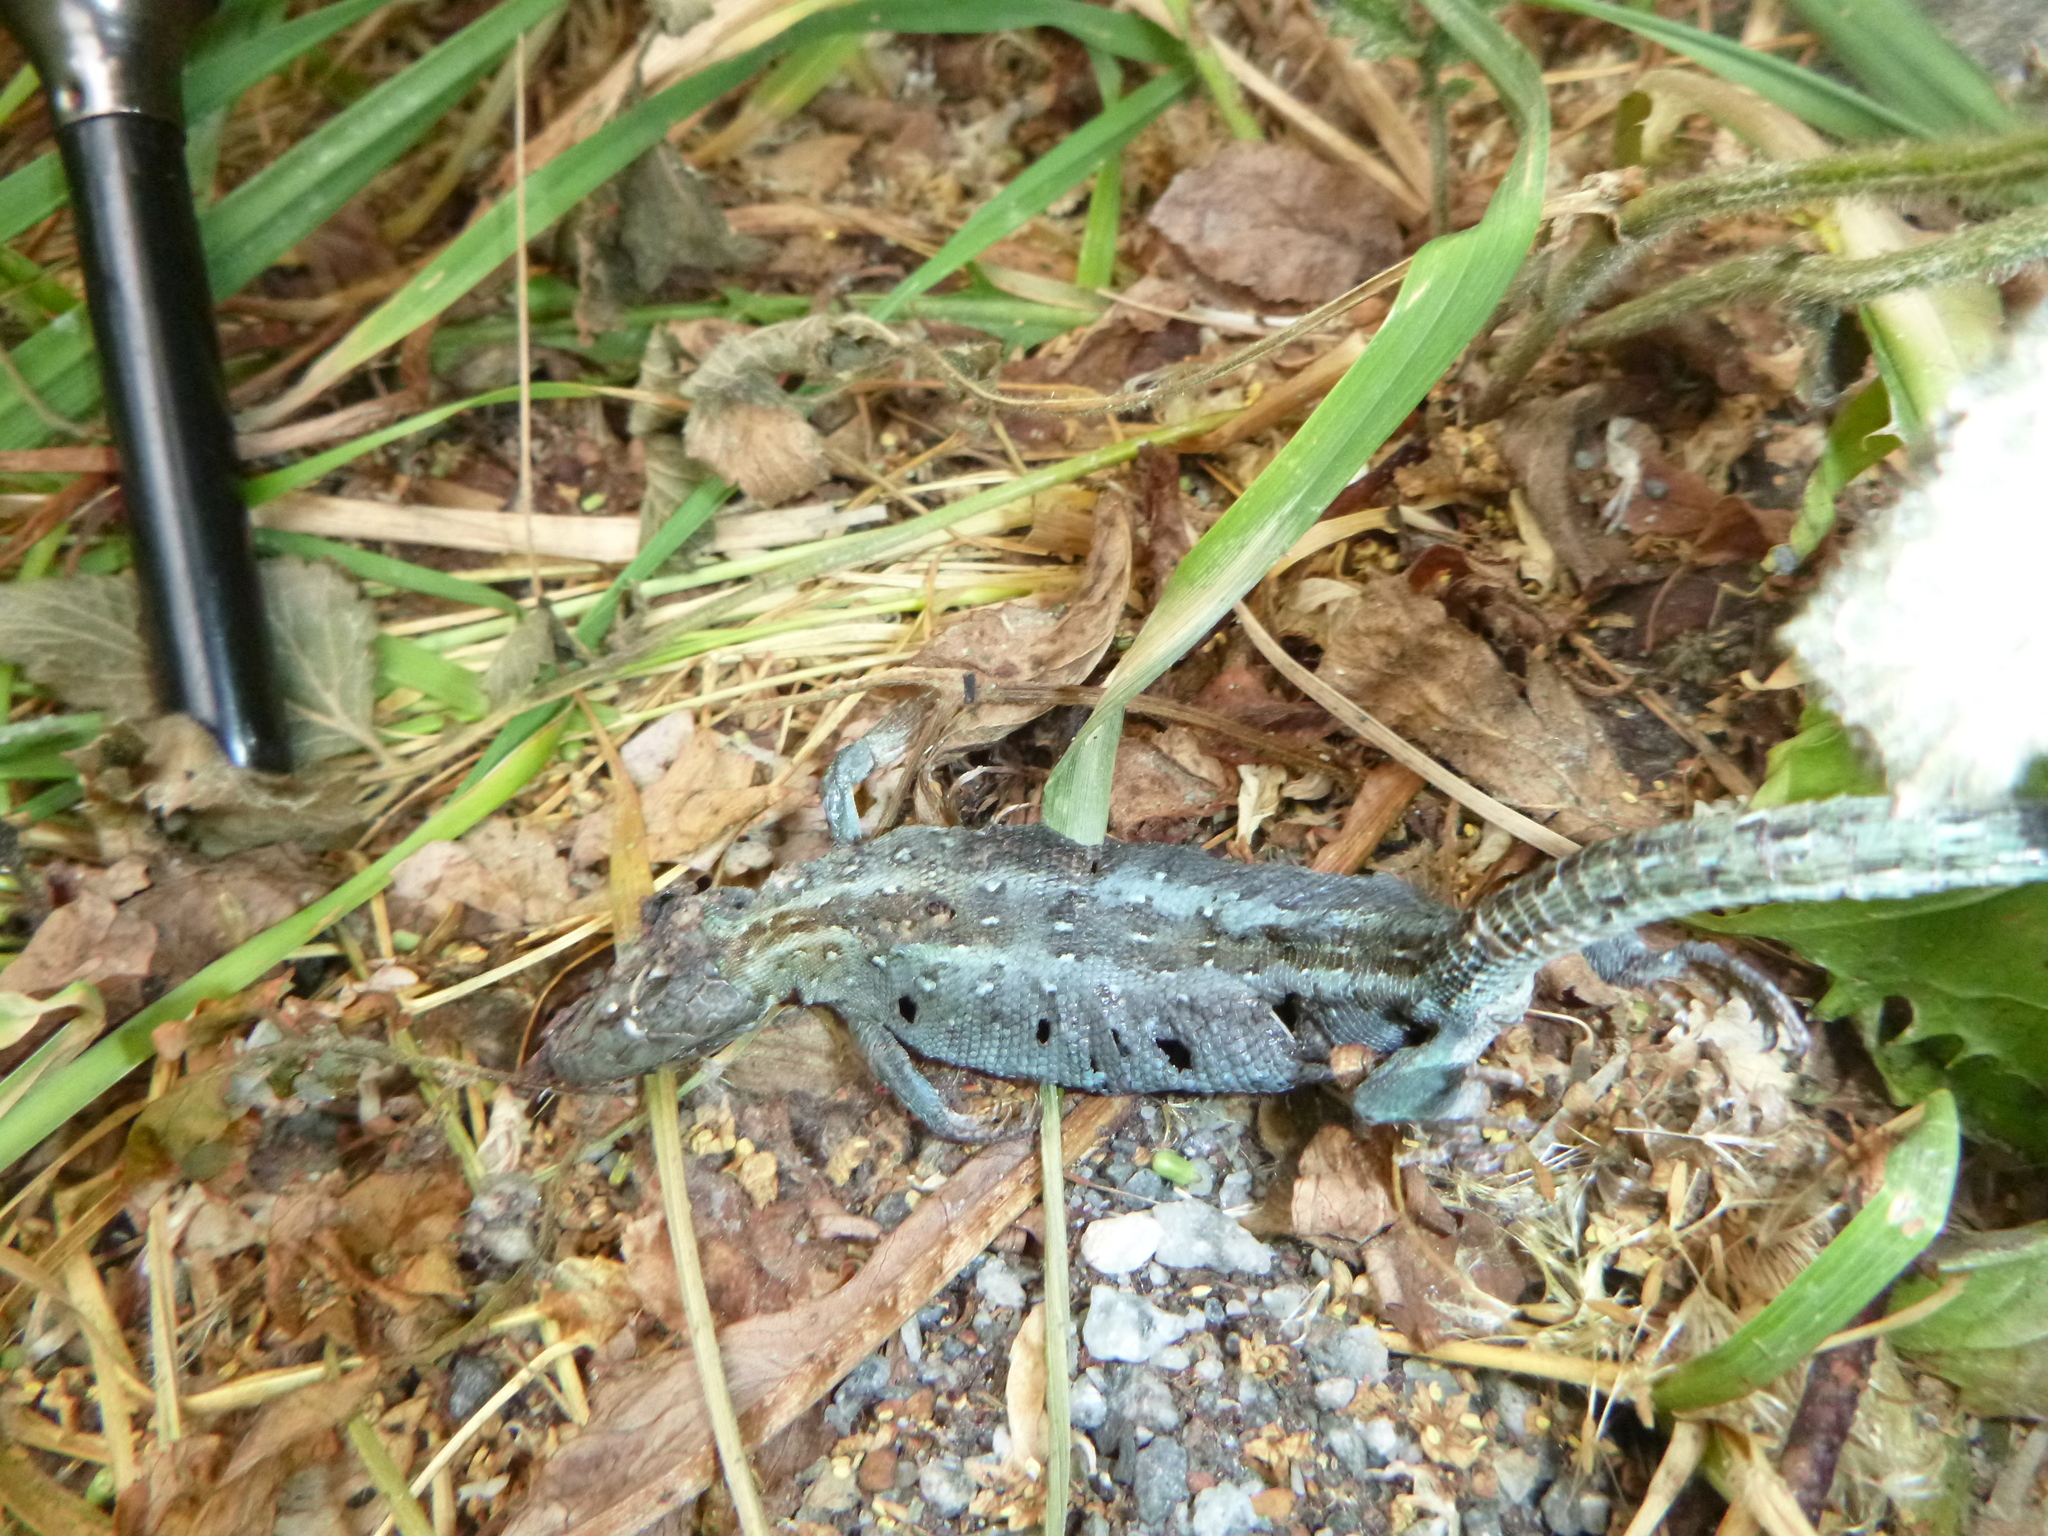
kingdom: Animalia
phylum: Chordata
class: Squamata
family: Lacertidae
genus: Lacerta
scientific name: Lacerta agilis
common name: Sand lizard
